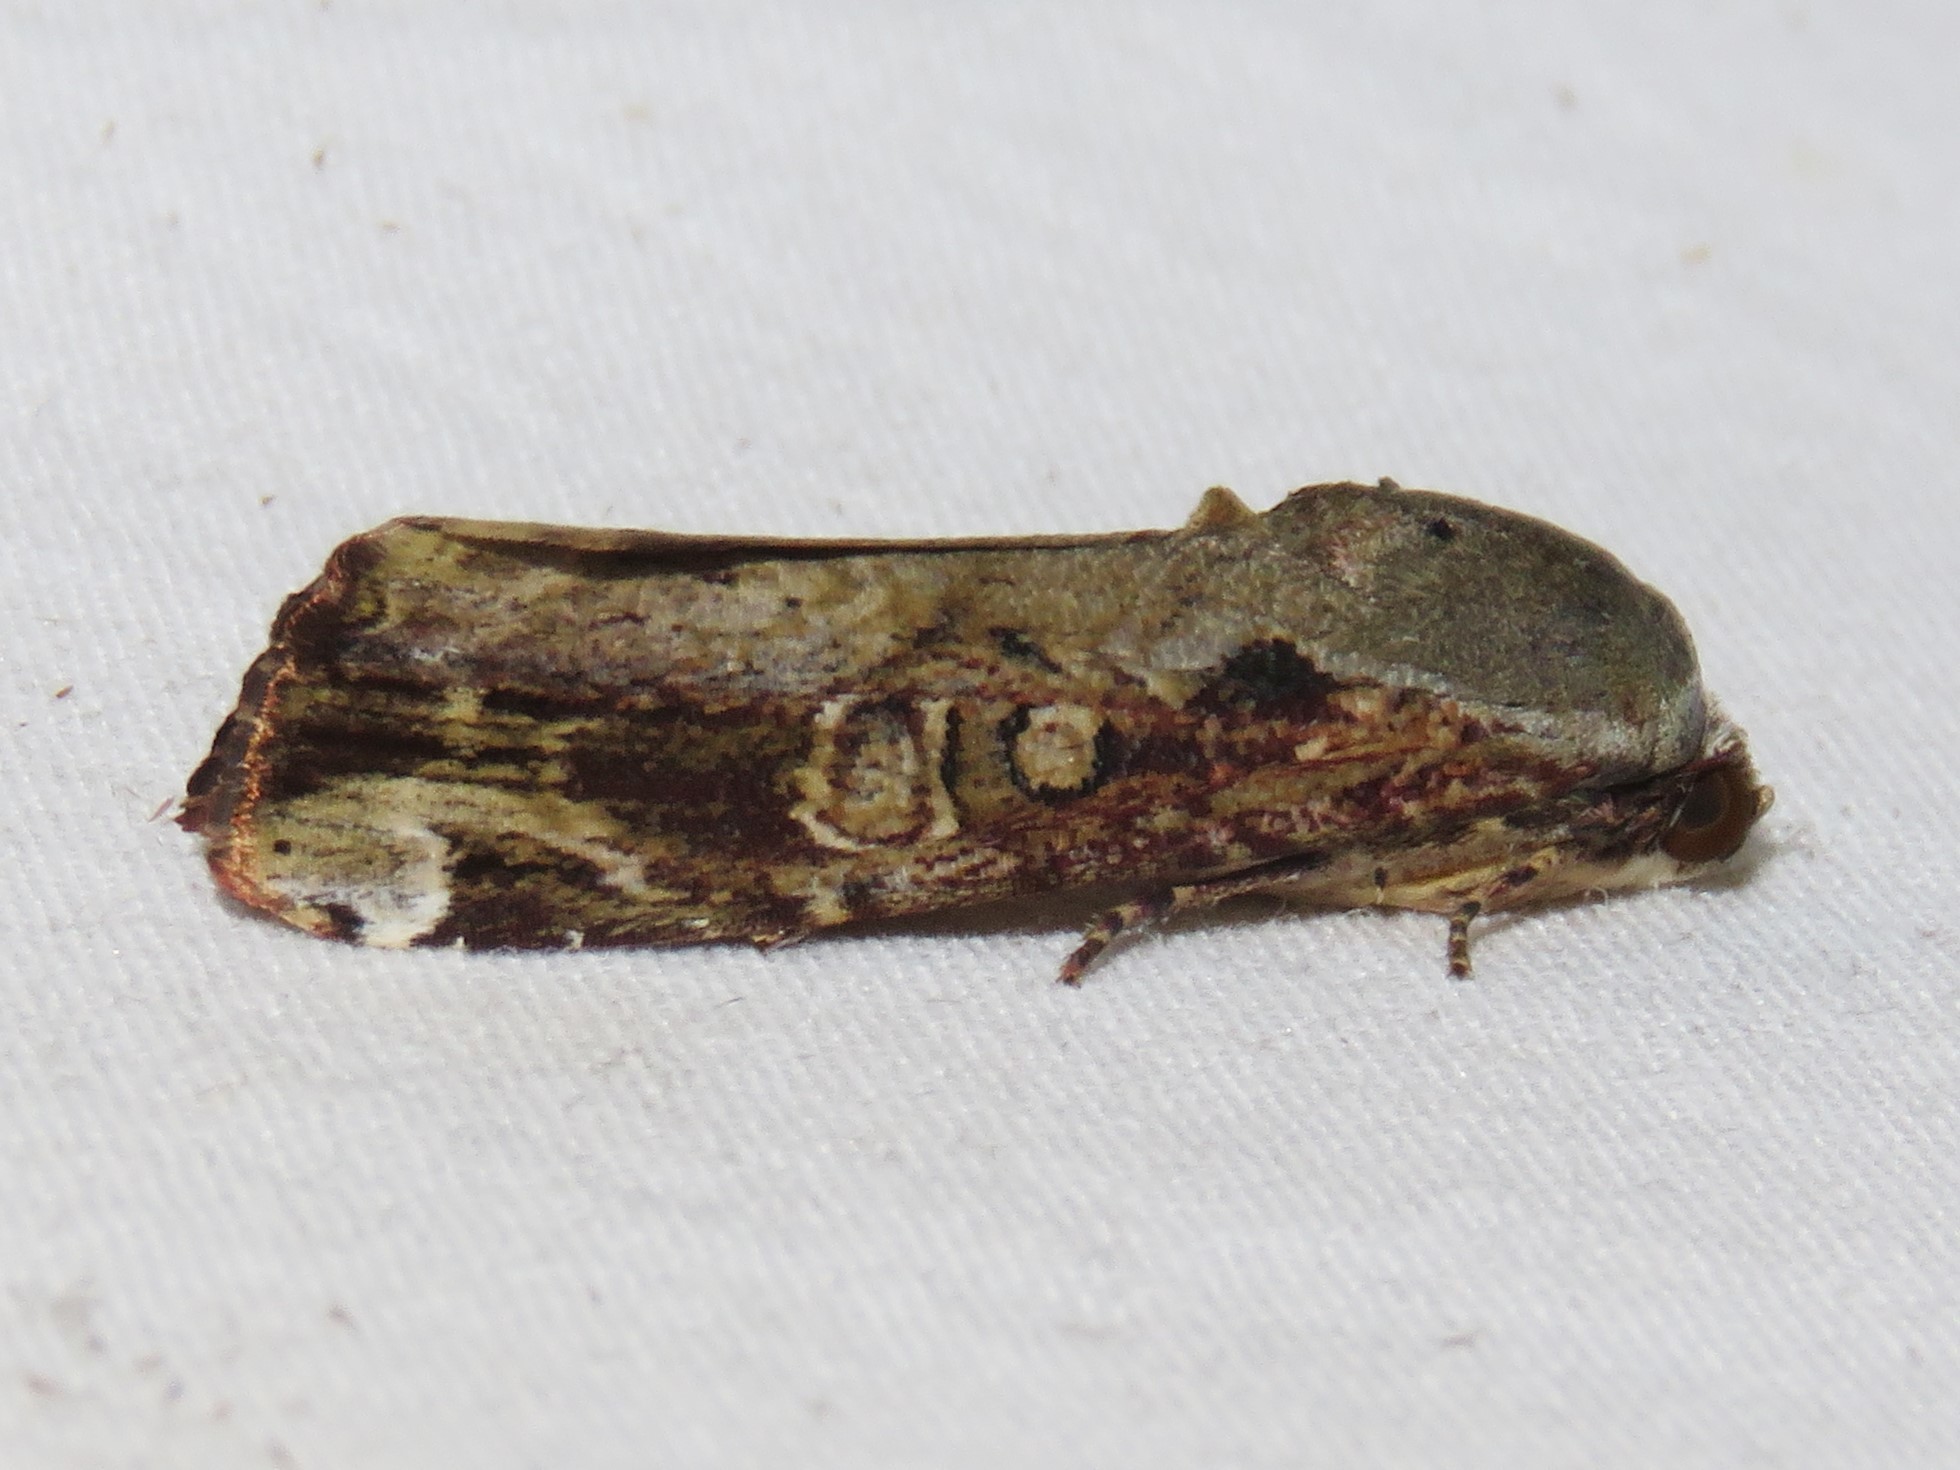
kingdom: Animalia
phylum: Arthropoda
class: Insecta
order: Lepidoptera
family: Noctuidae
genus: Magusa
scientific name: Magusa divaricata
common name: Orb narrow-winged moth
